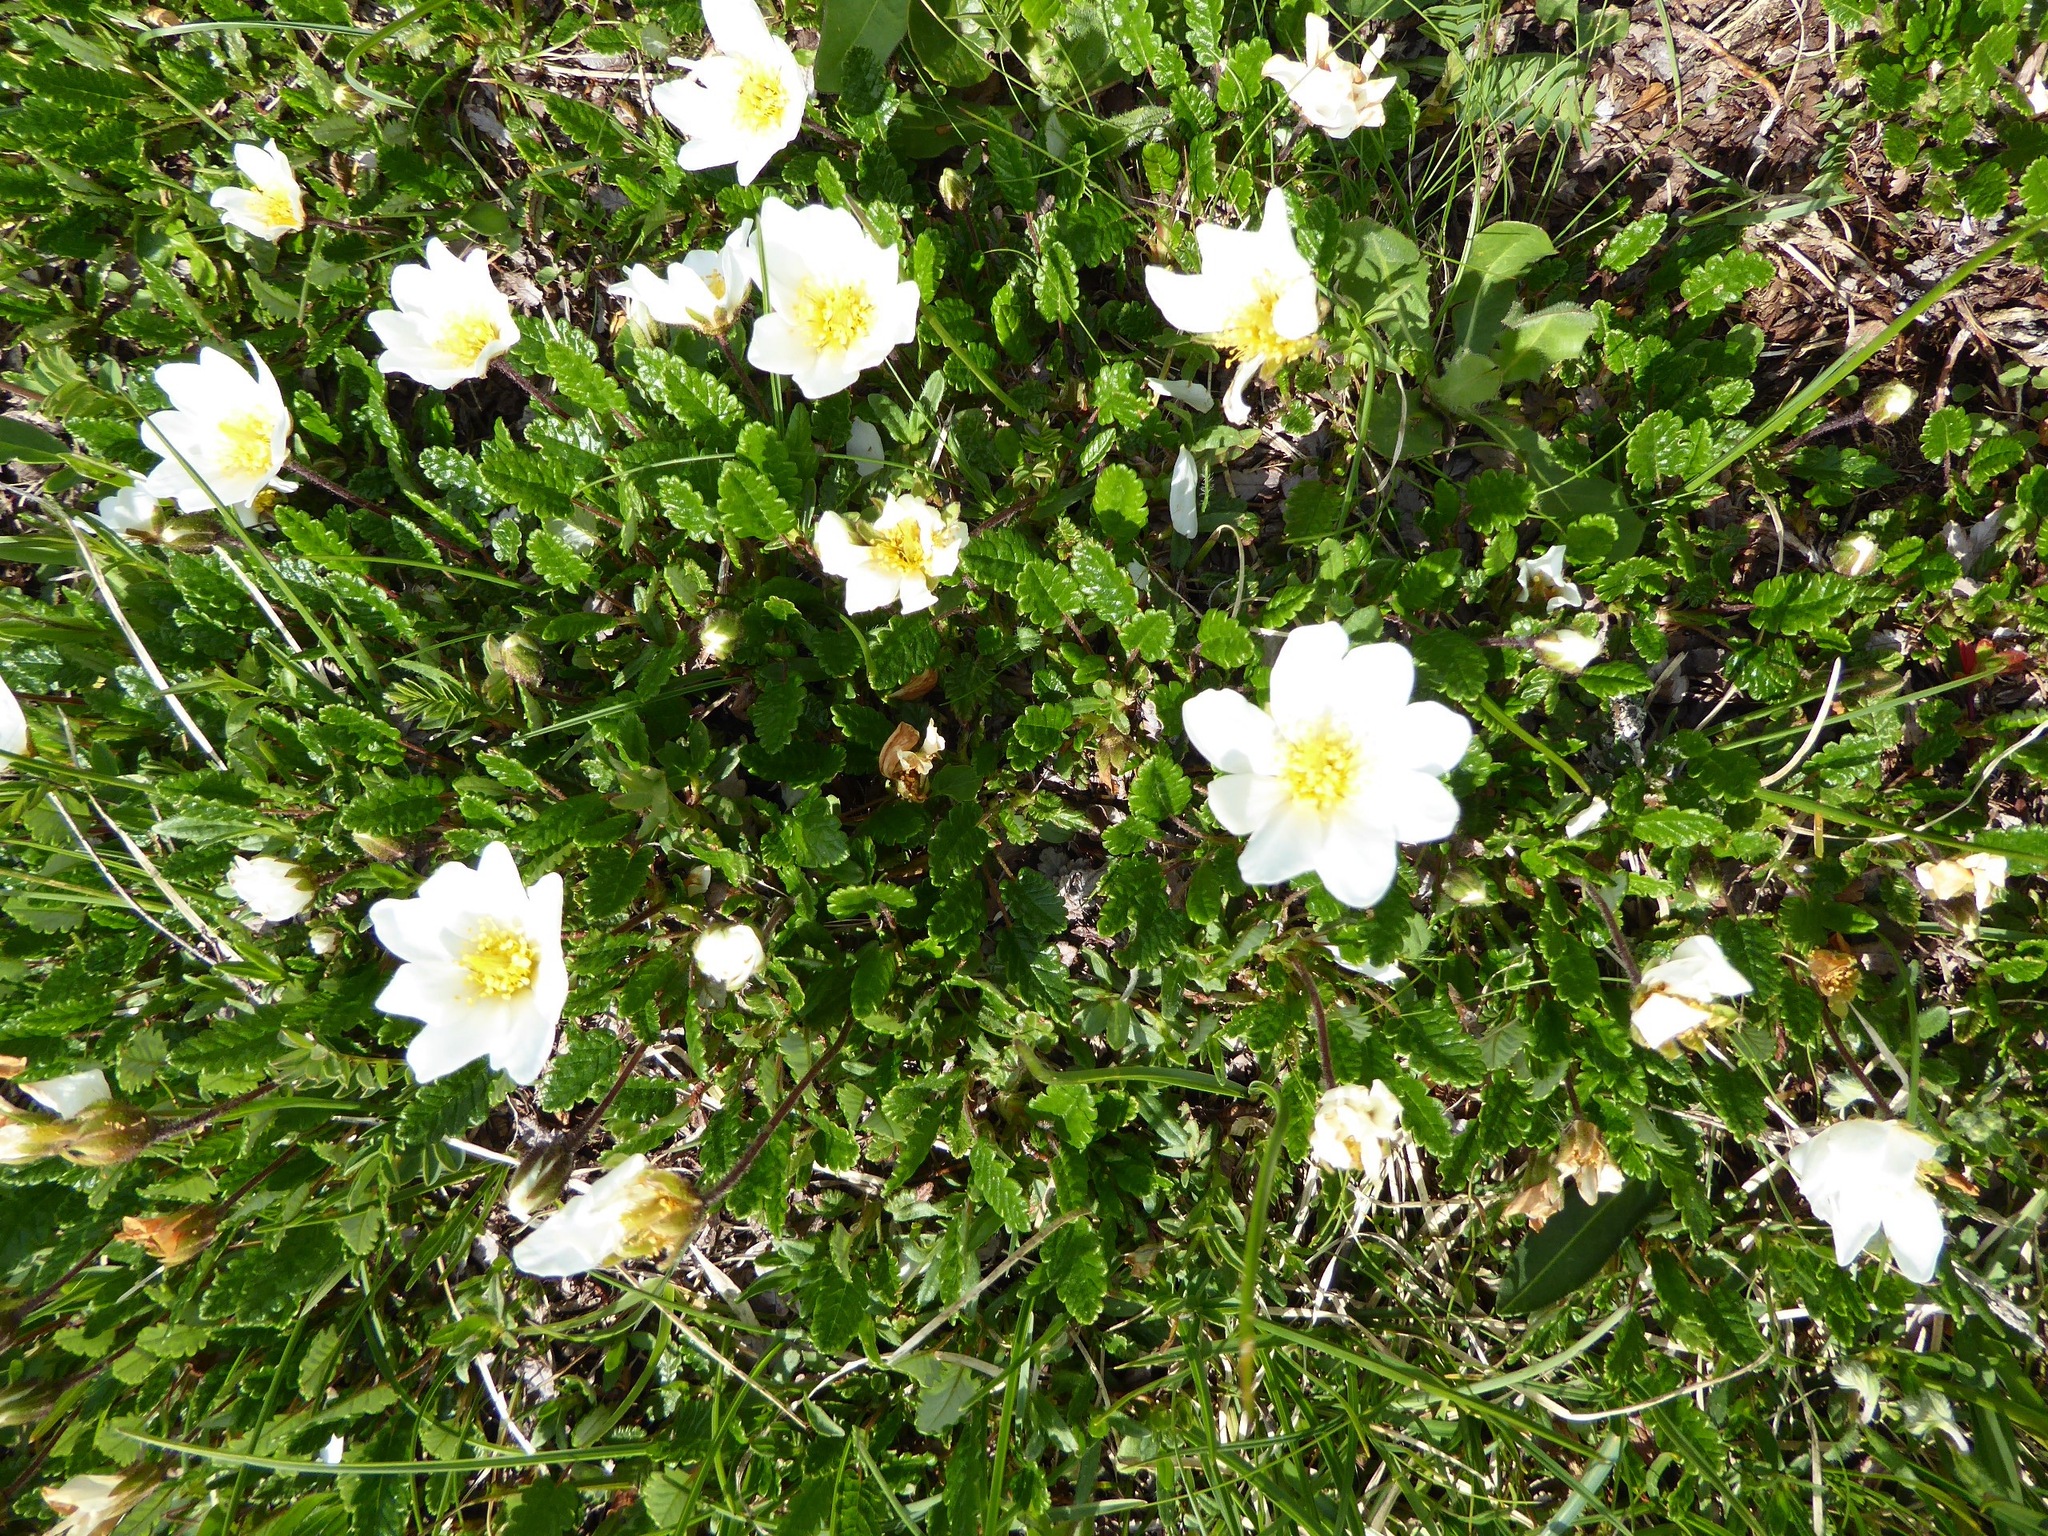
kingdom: Plantae
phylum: Tracheophyta
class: Magnoliopsida
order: Rosales
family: Rosaceae
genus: Dryas
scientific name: Dryas octopetala
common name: Eight-petal mountain-avens
